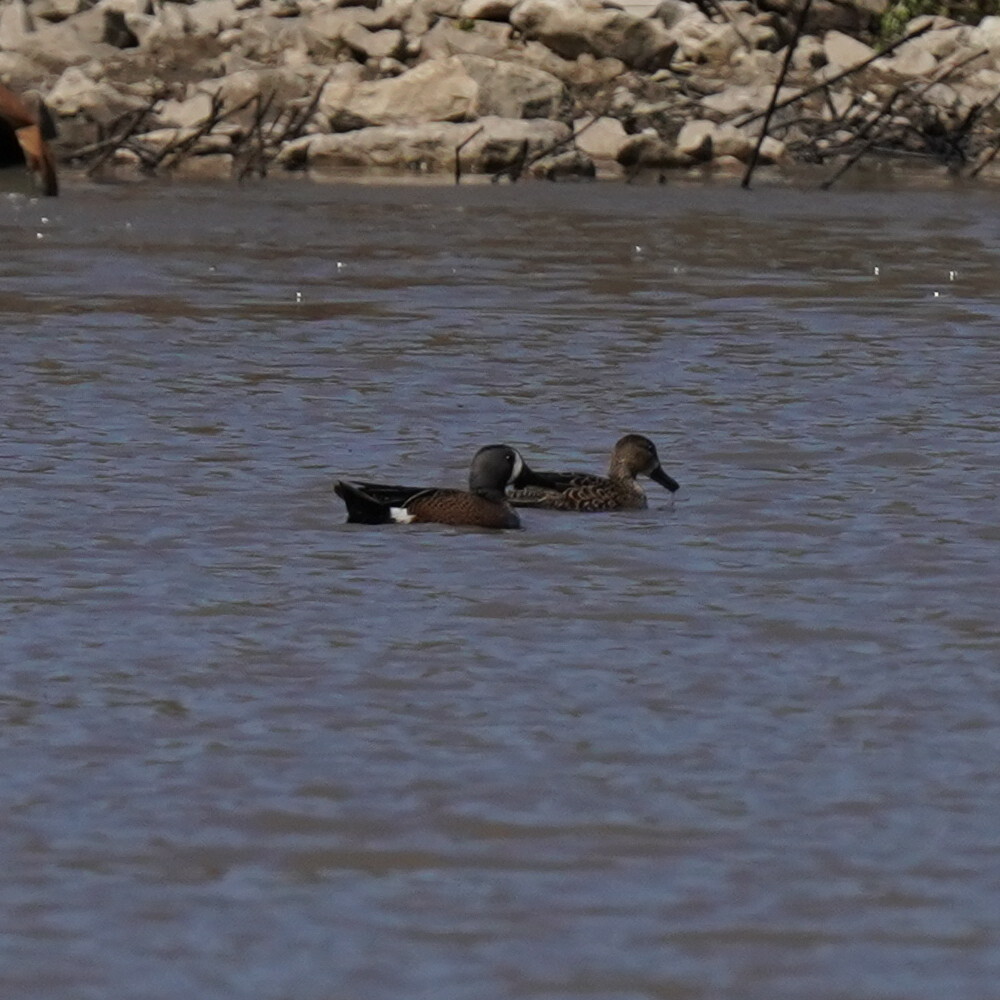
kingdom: Animalia
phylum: Chordata
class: Aves
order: Anseriformes
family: Anatidae
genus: Spatula
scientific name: Spatula discors
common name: Blue-winged teal
